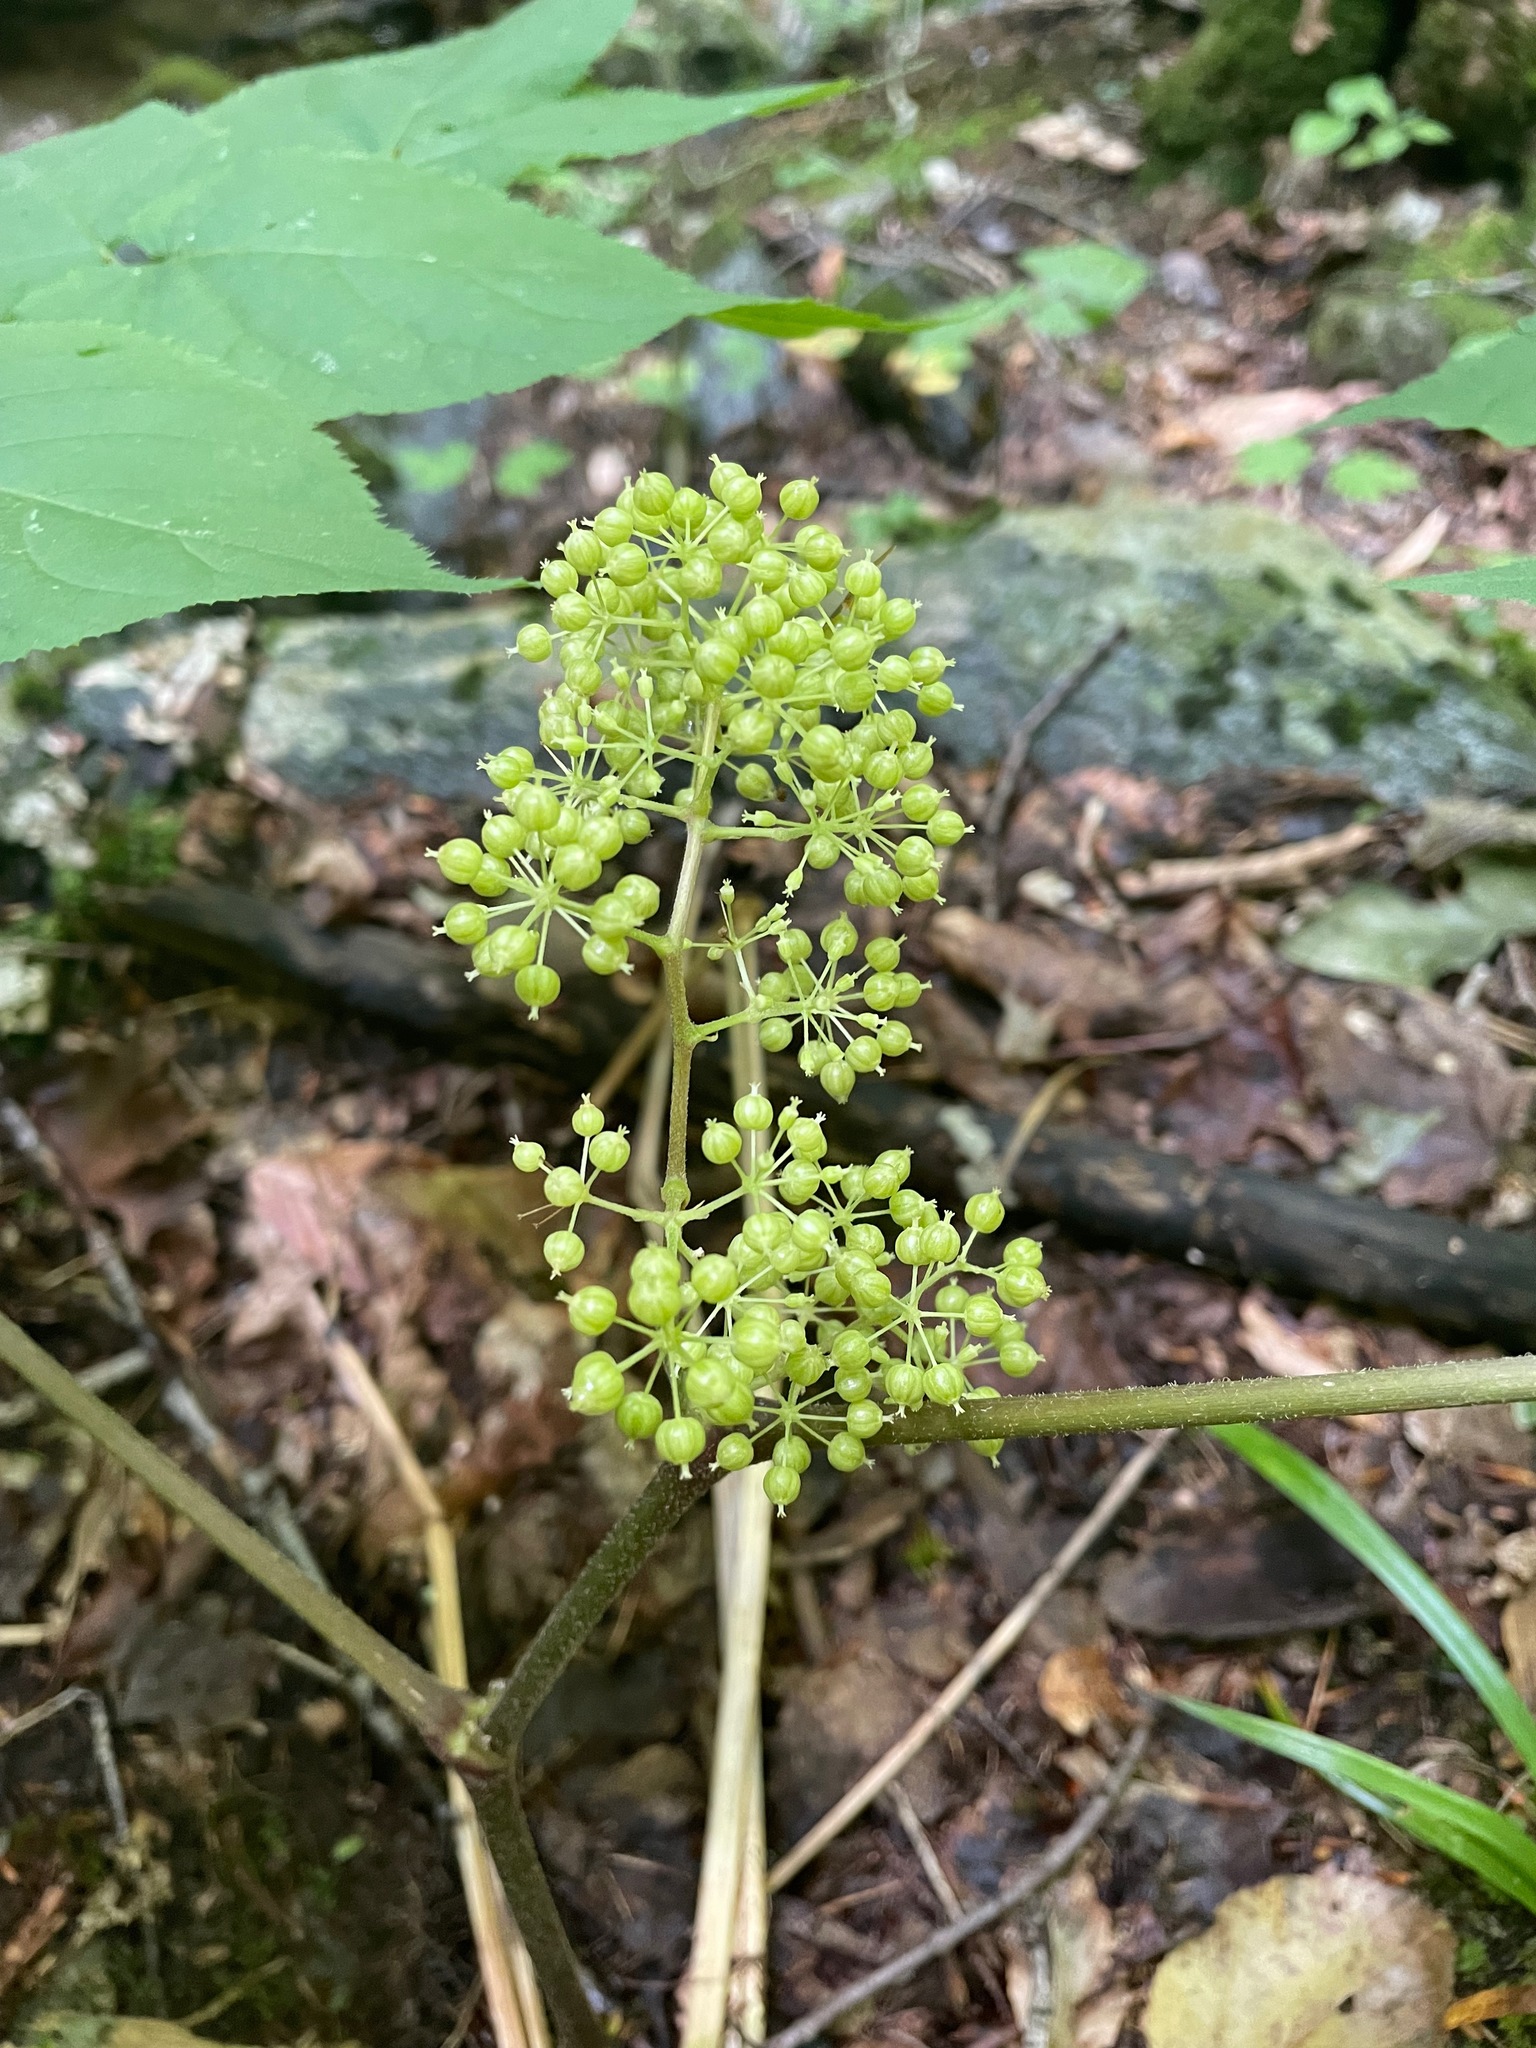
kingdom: Plantae
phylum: Tracheophyta
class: Magnoliopsida
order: Apiales
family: Araliaceae
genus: Aralia
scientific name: Aralia racemosa
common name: American-spikenard
